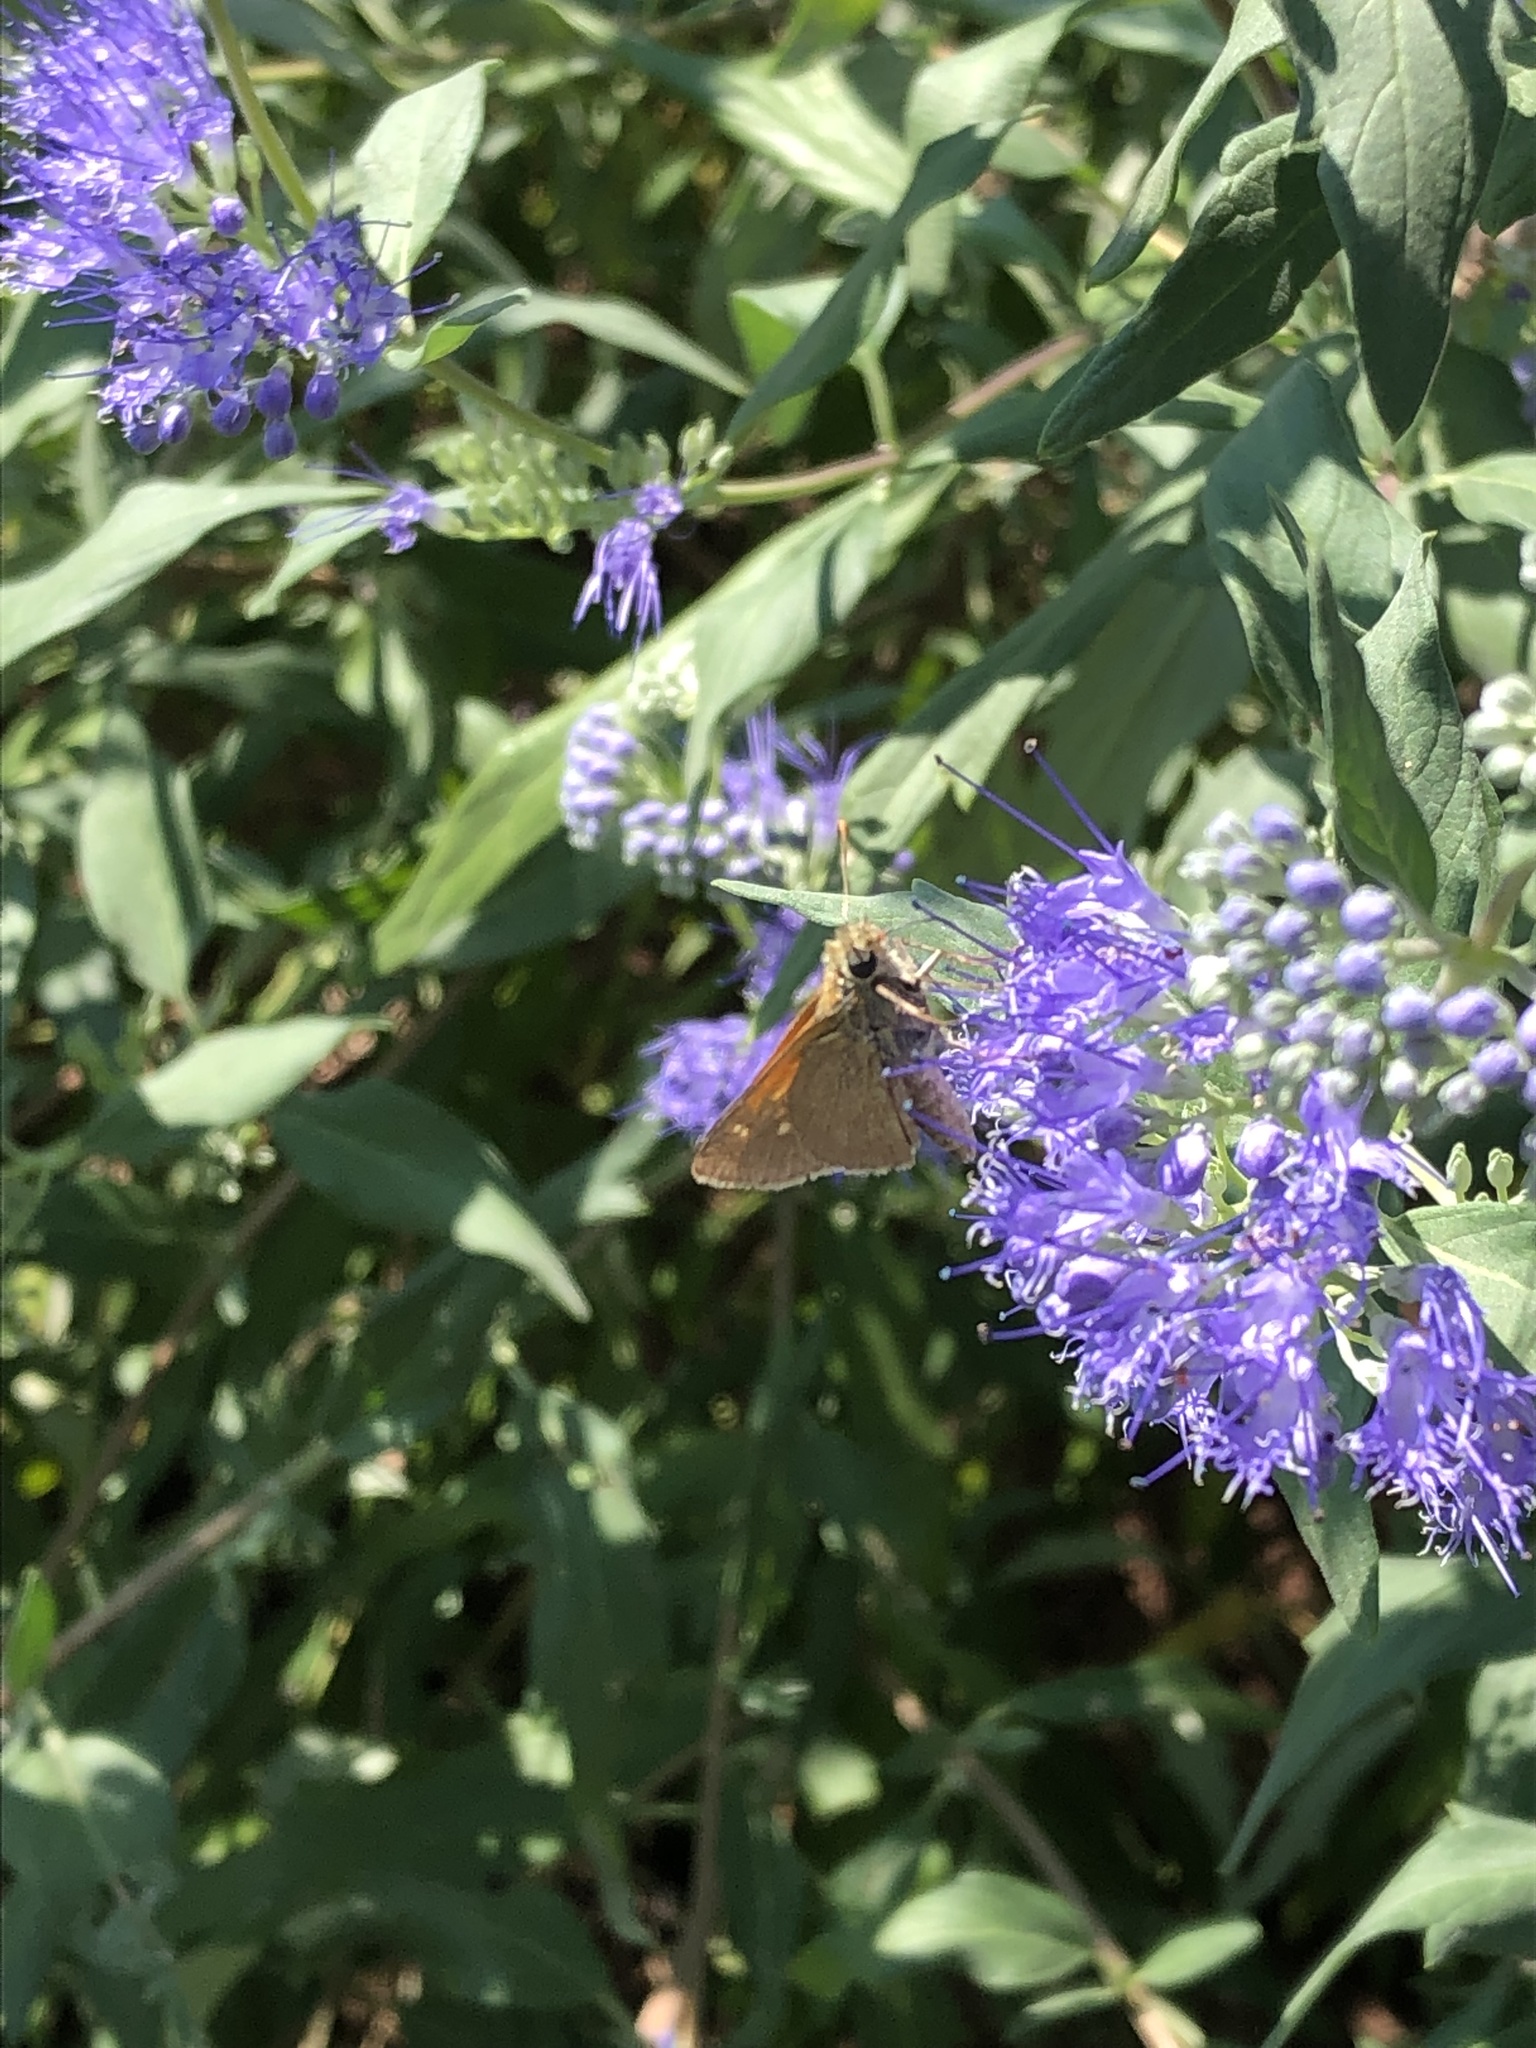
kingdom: Animalia
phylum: Arthropoda
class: Insecta
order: Lepidoptera
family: Hesperiidae
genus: Polites
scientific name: Polites themistocles
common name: Tawny-edged skipper
